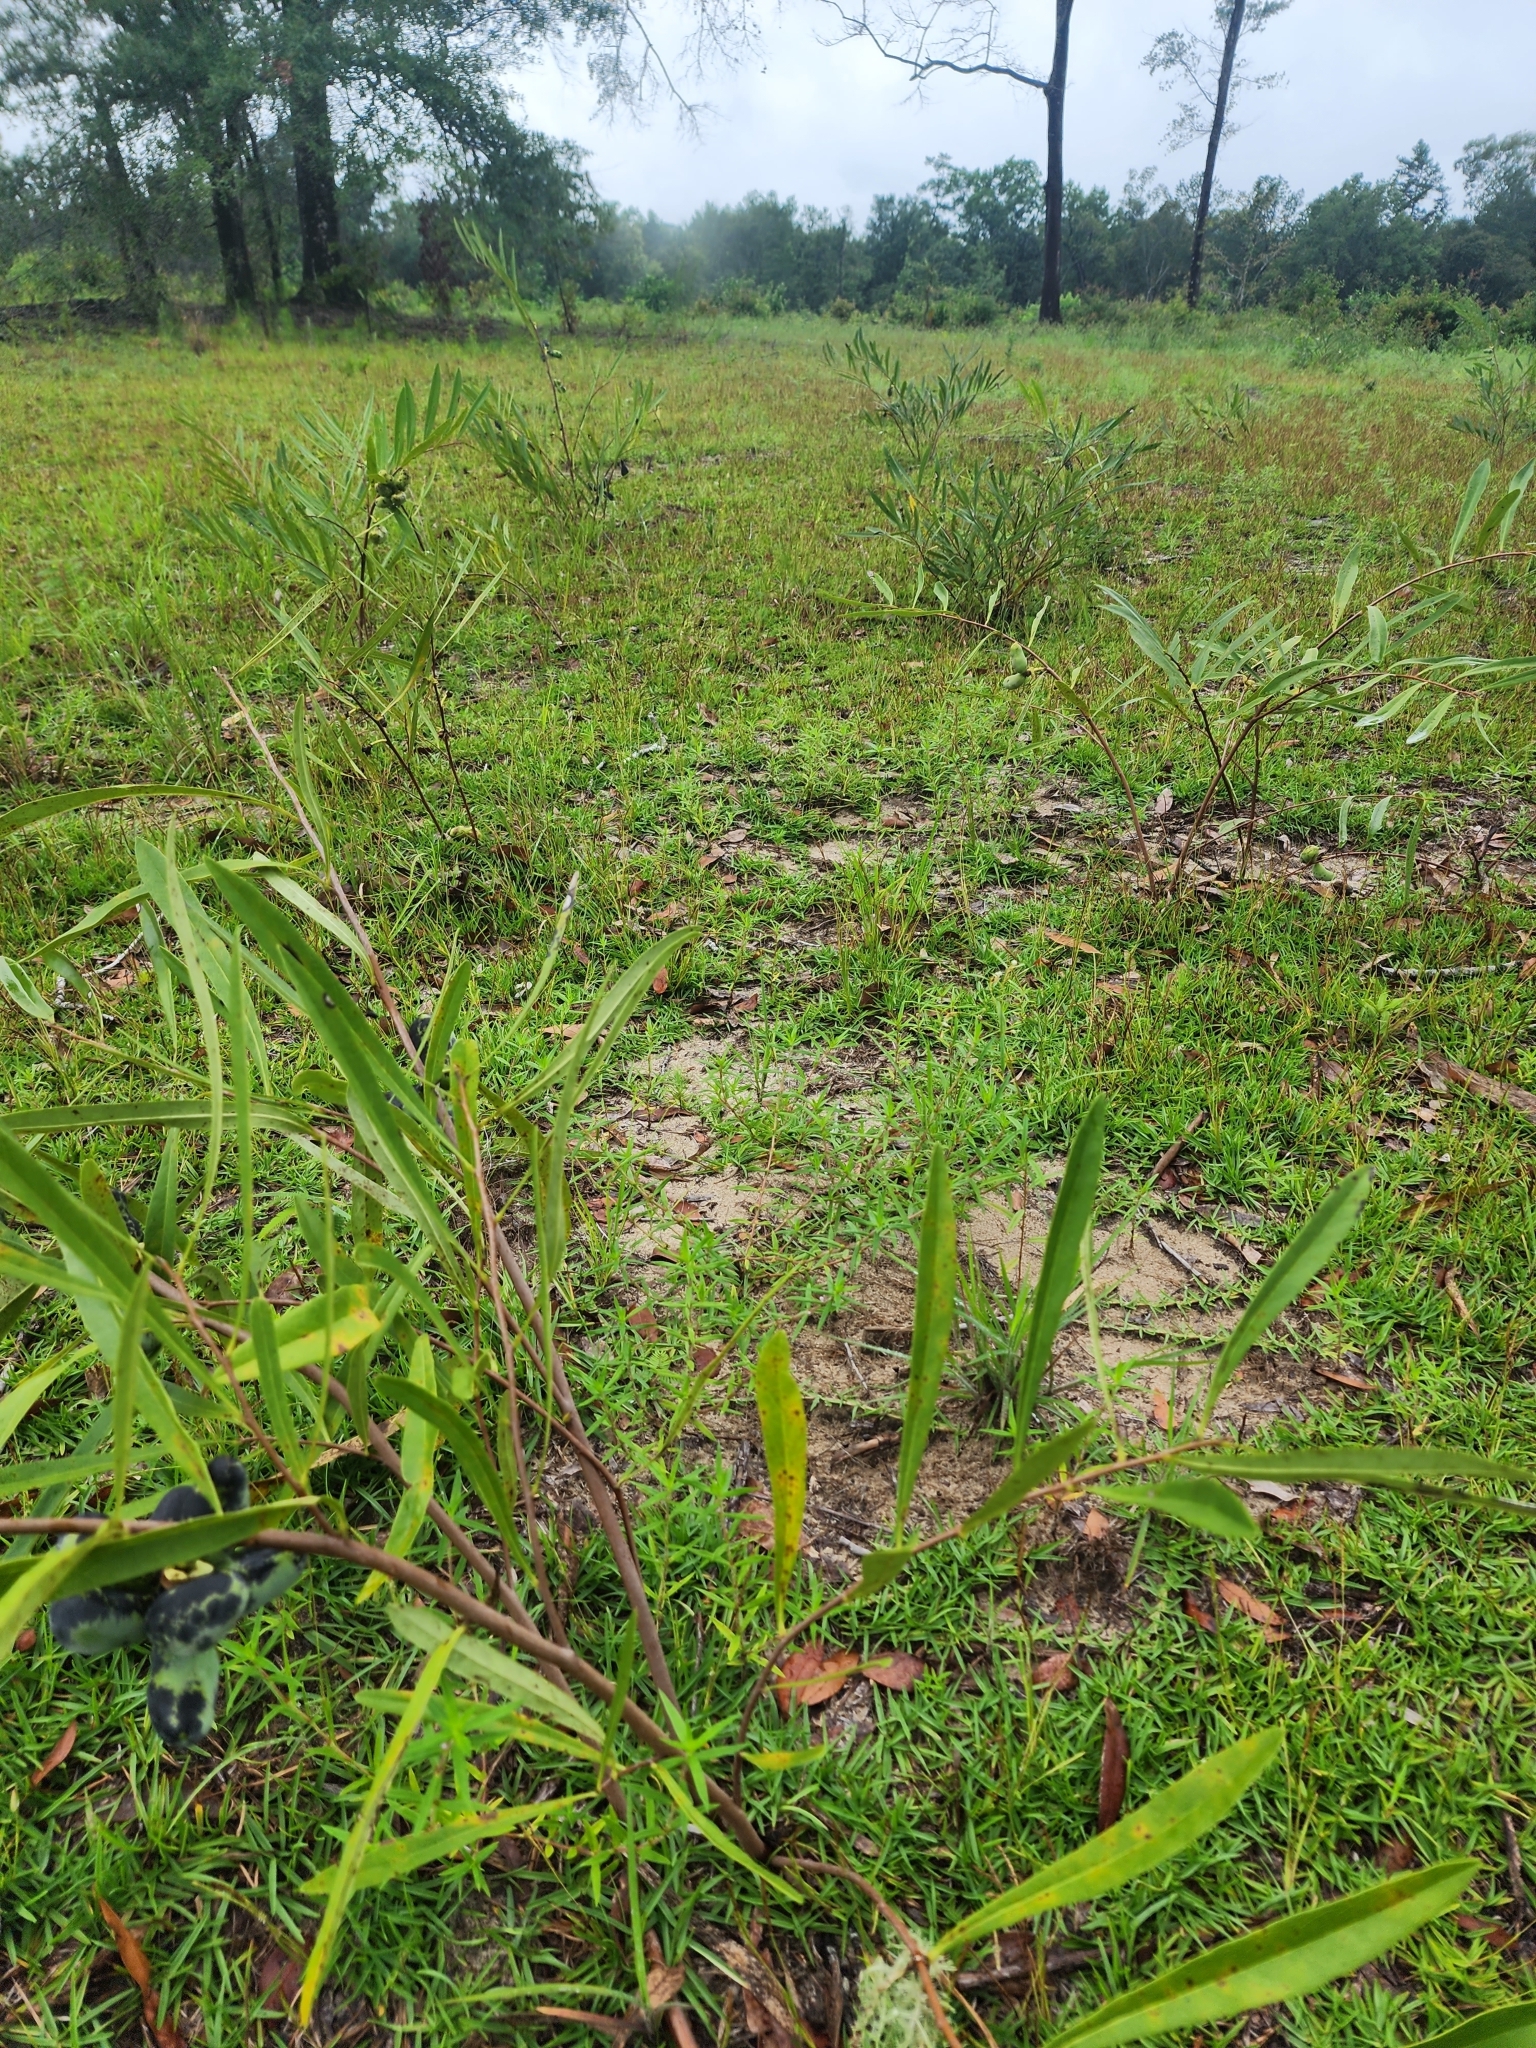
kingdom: Plantae
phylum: Tracheophyta
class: Magnoliopsida
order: Magnoliales
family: Annonaceae
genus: Asimina
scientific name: Asimina longifolia
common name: Polecatbush
